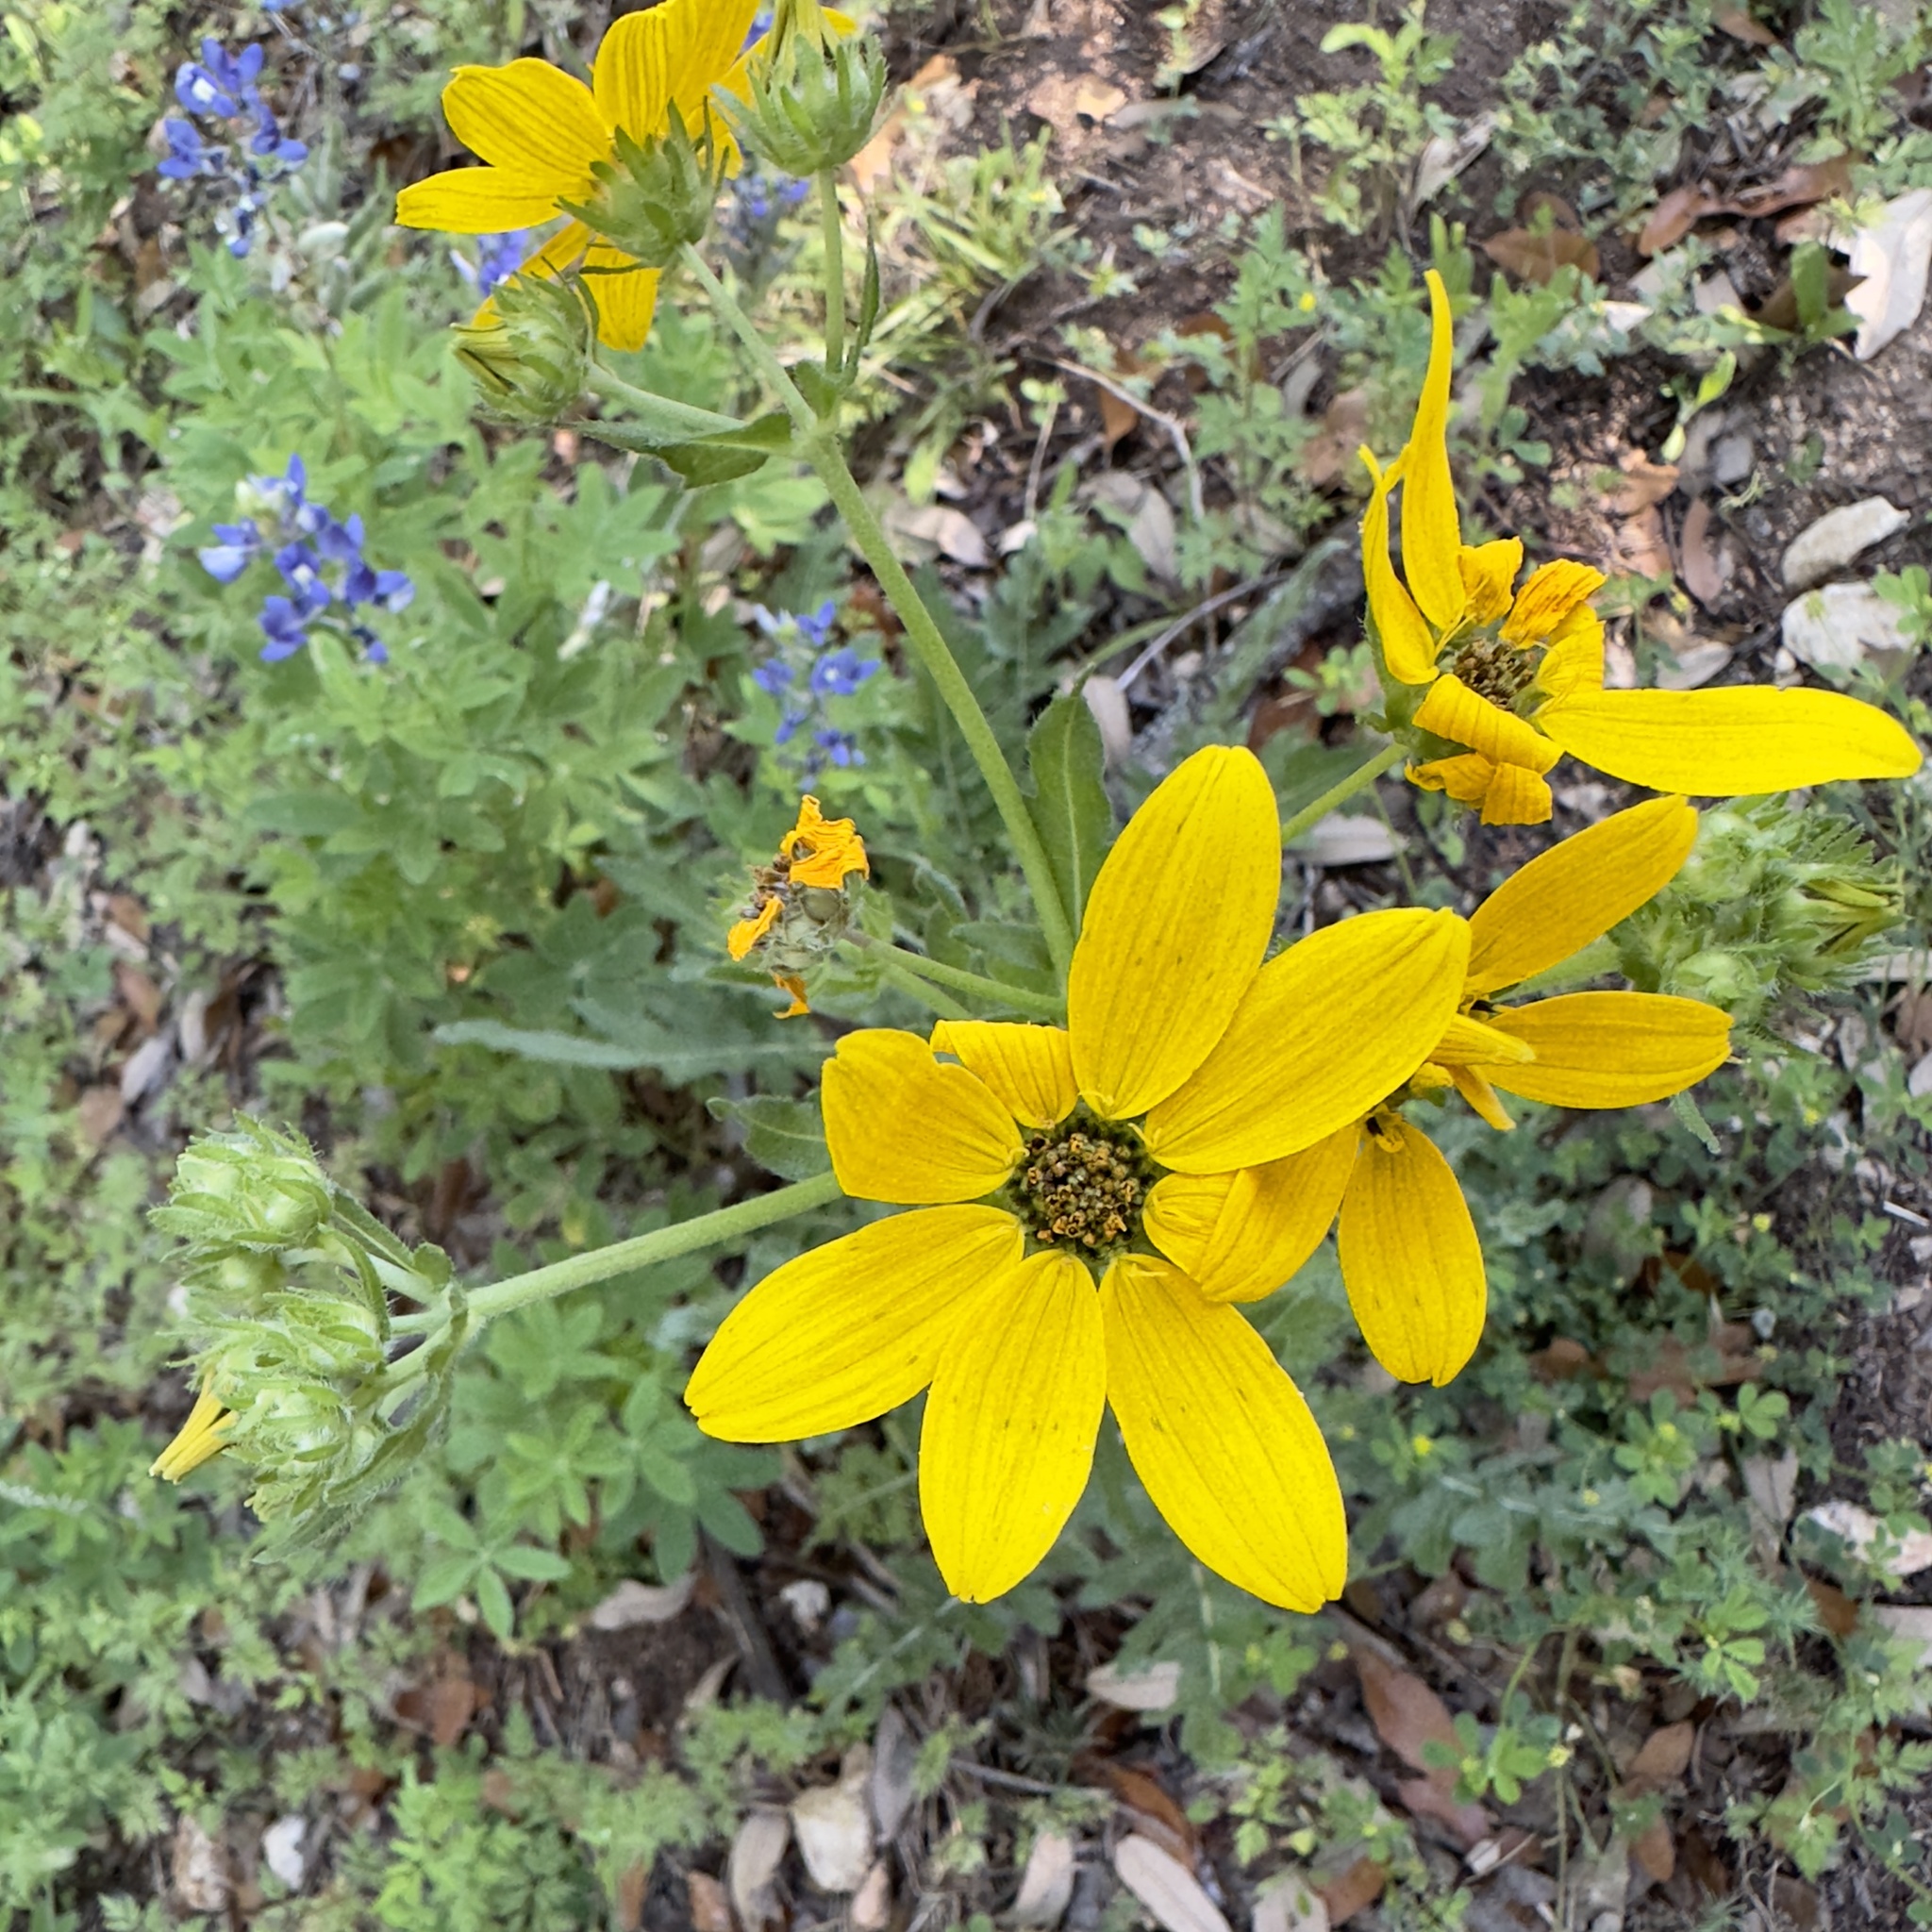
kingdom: Plantae
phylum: Tracheophyta
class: Magnoliopsida
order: Asterales
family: Asteraceae
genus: Engelmannia
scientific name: Engelmannia peristenia
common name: Engelmann's daisy
